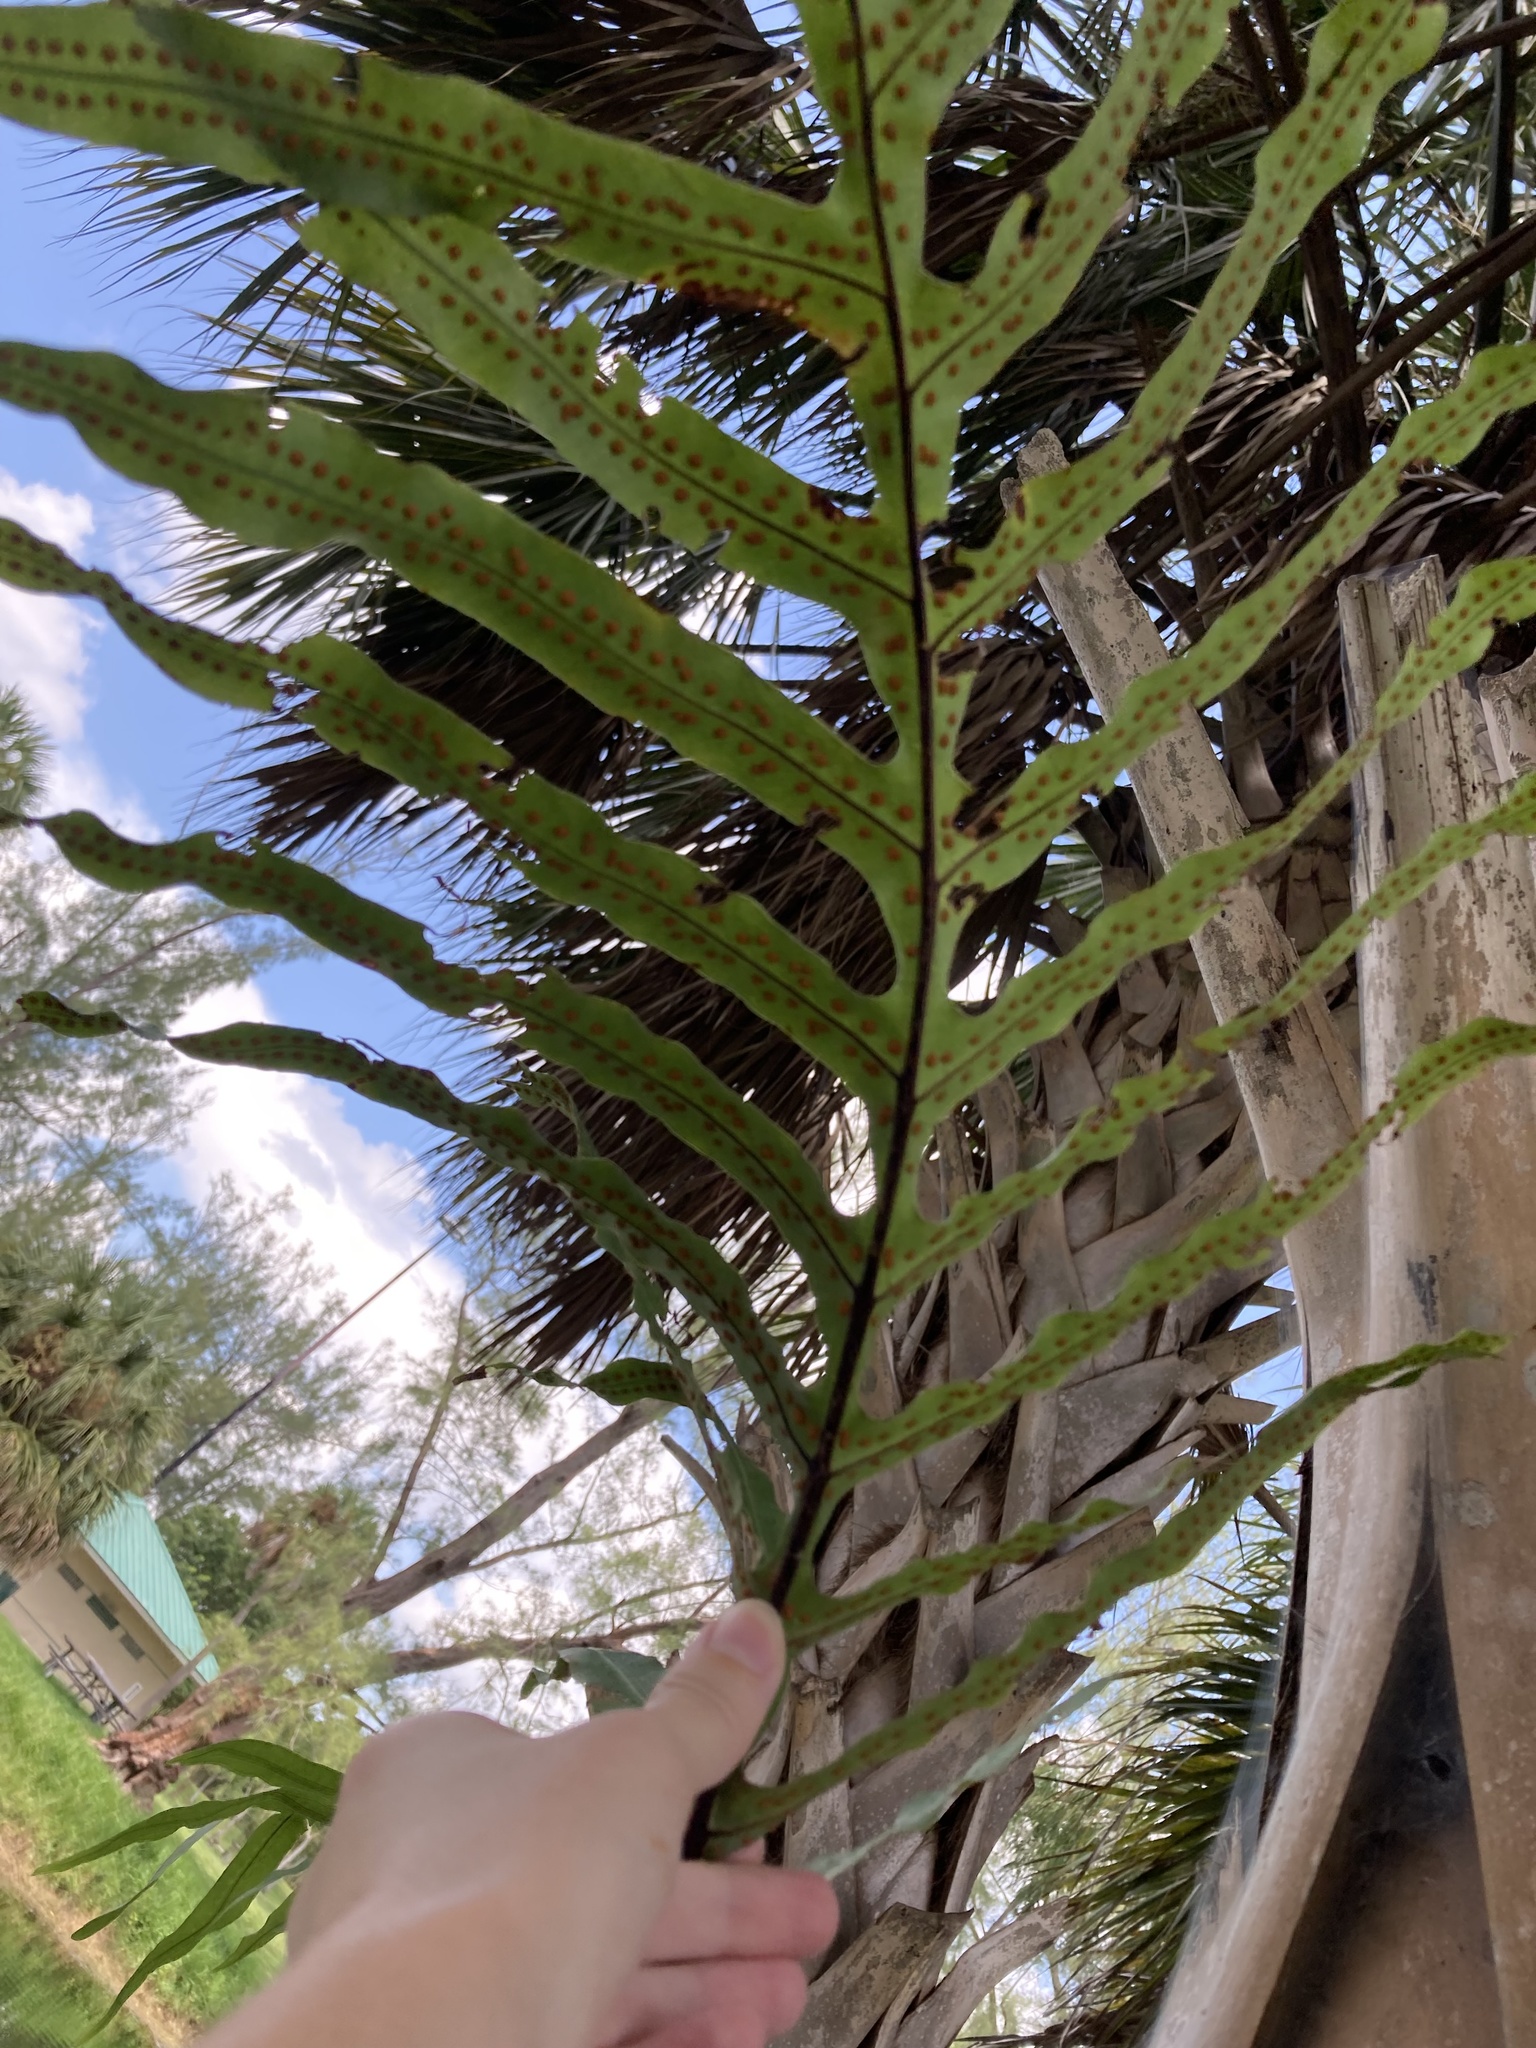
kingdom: Plantae
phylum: Tracheophyta
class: Polypodiopsida
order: Polypodiales
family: Polypodiaceae
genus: Phlebodium
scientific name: Phlebodium aureum
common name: Gold-foot fern
